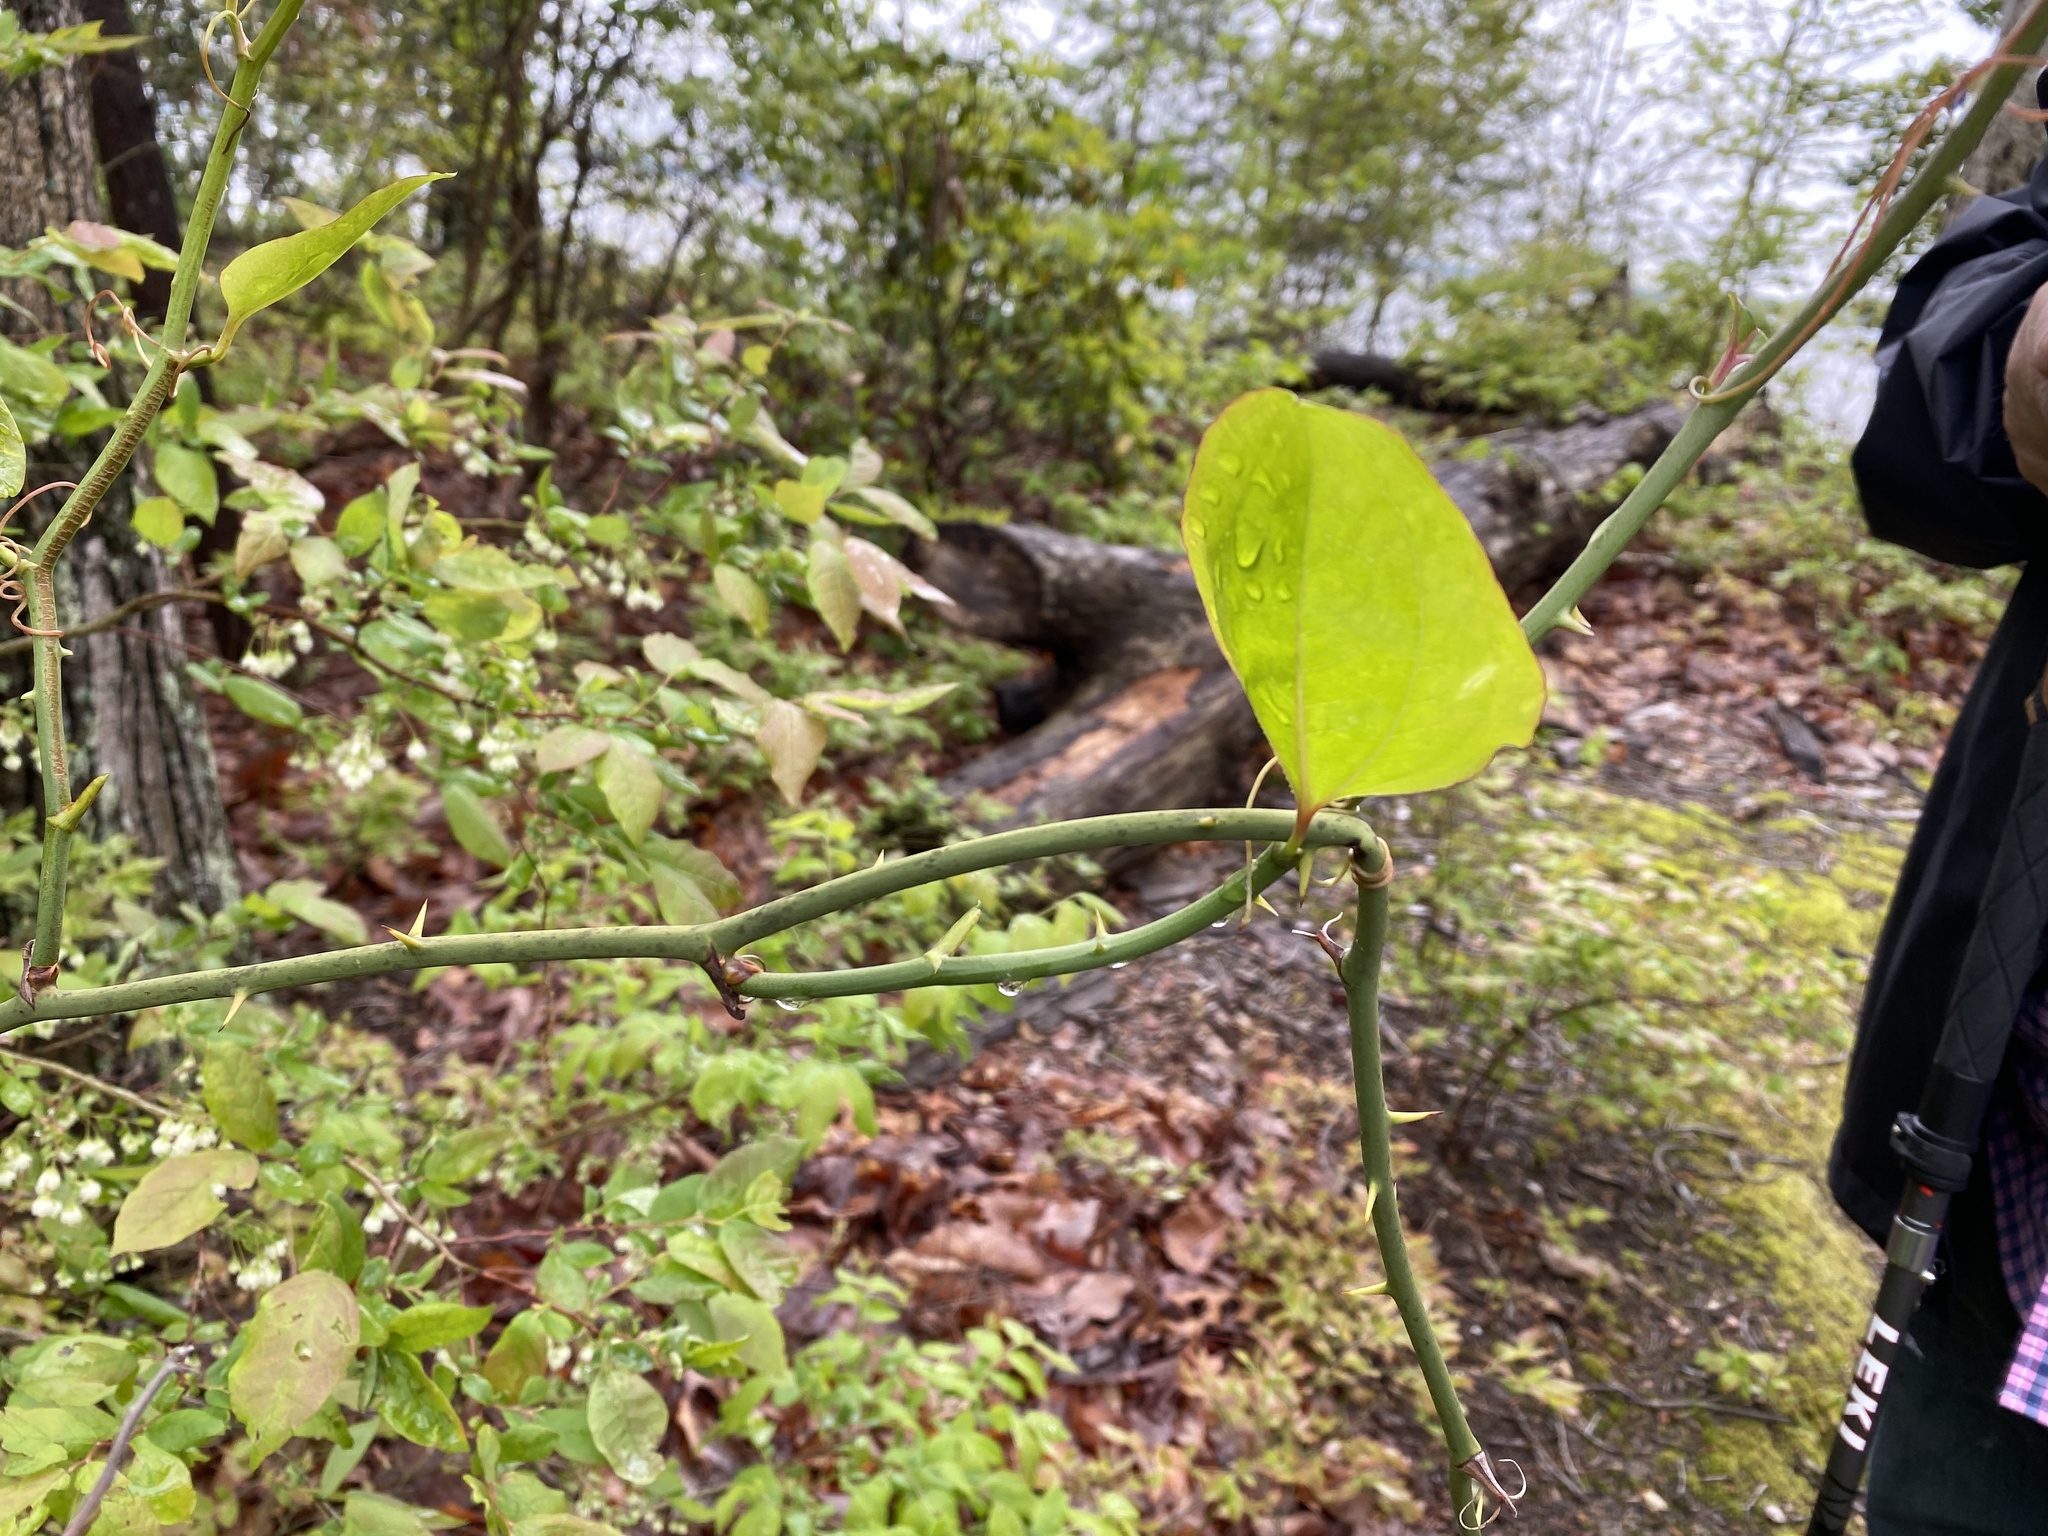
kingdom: Plantae
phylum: Tracheophyta
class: Liliopsida
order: Liliales
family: Smilacaceae
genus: Smilax
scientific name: Smilax rotundifolia
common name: Bullbriar
